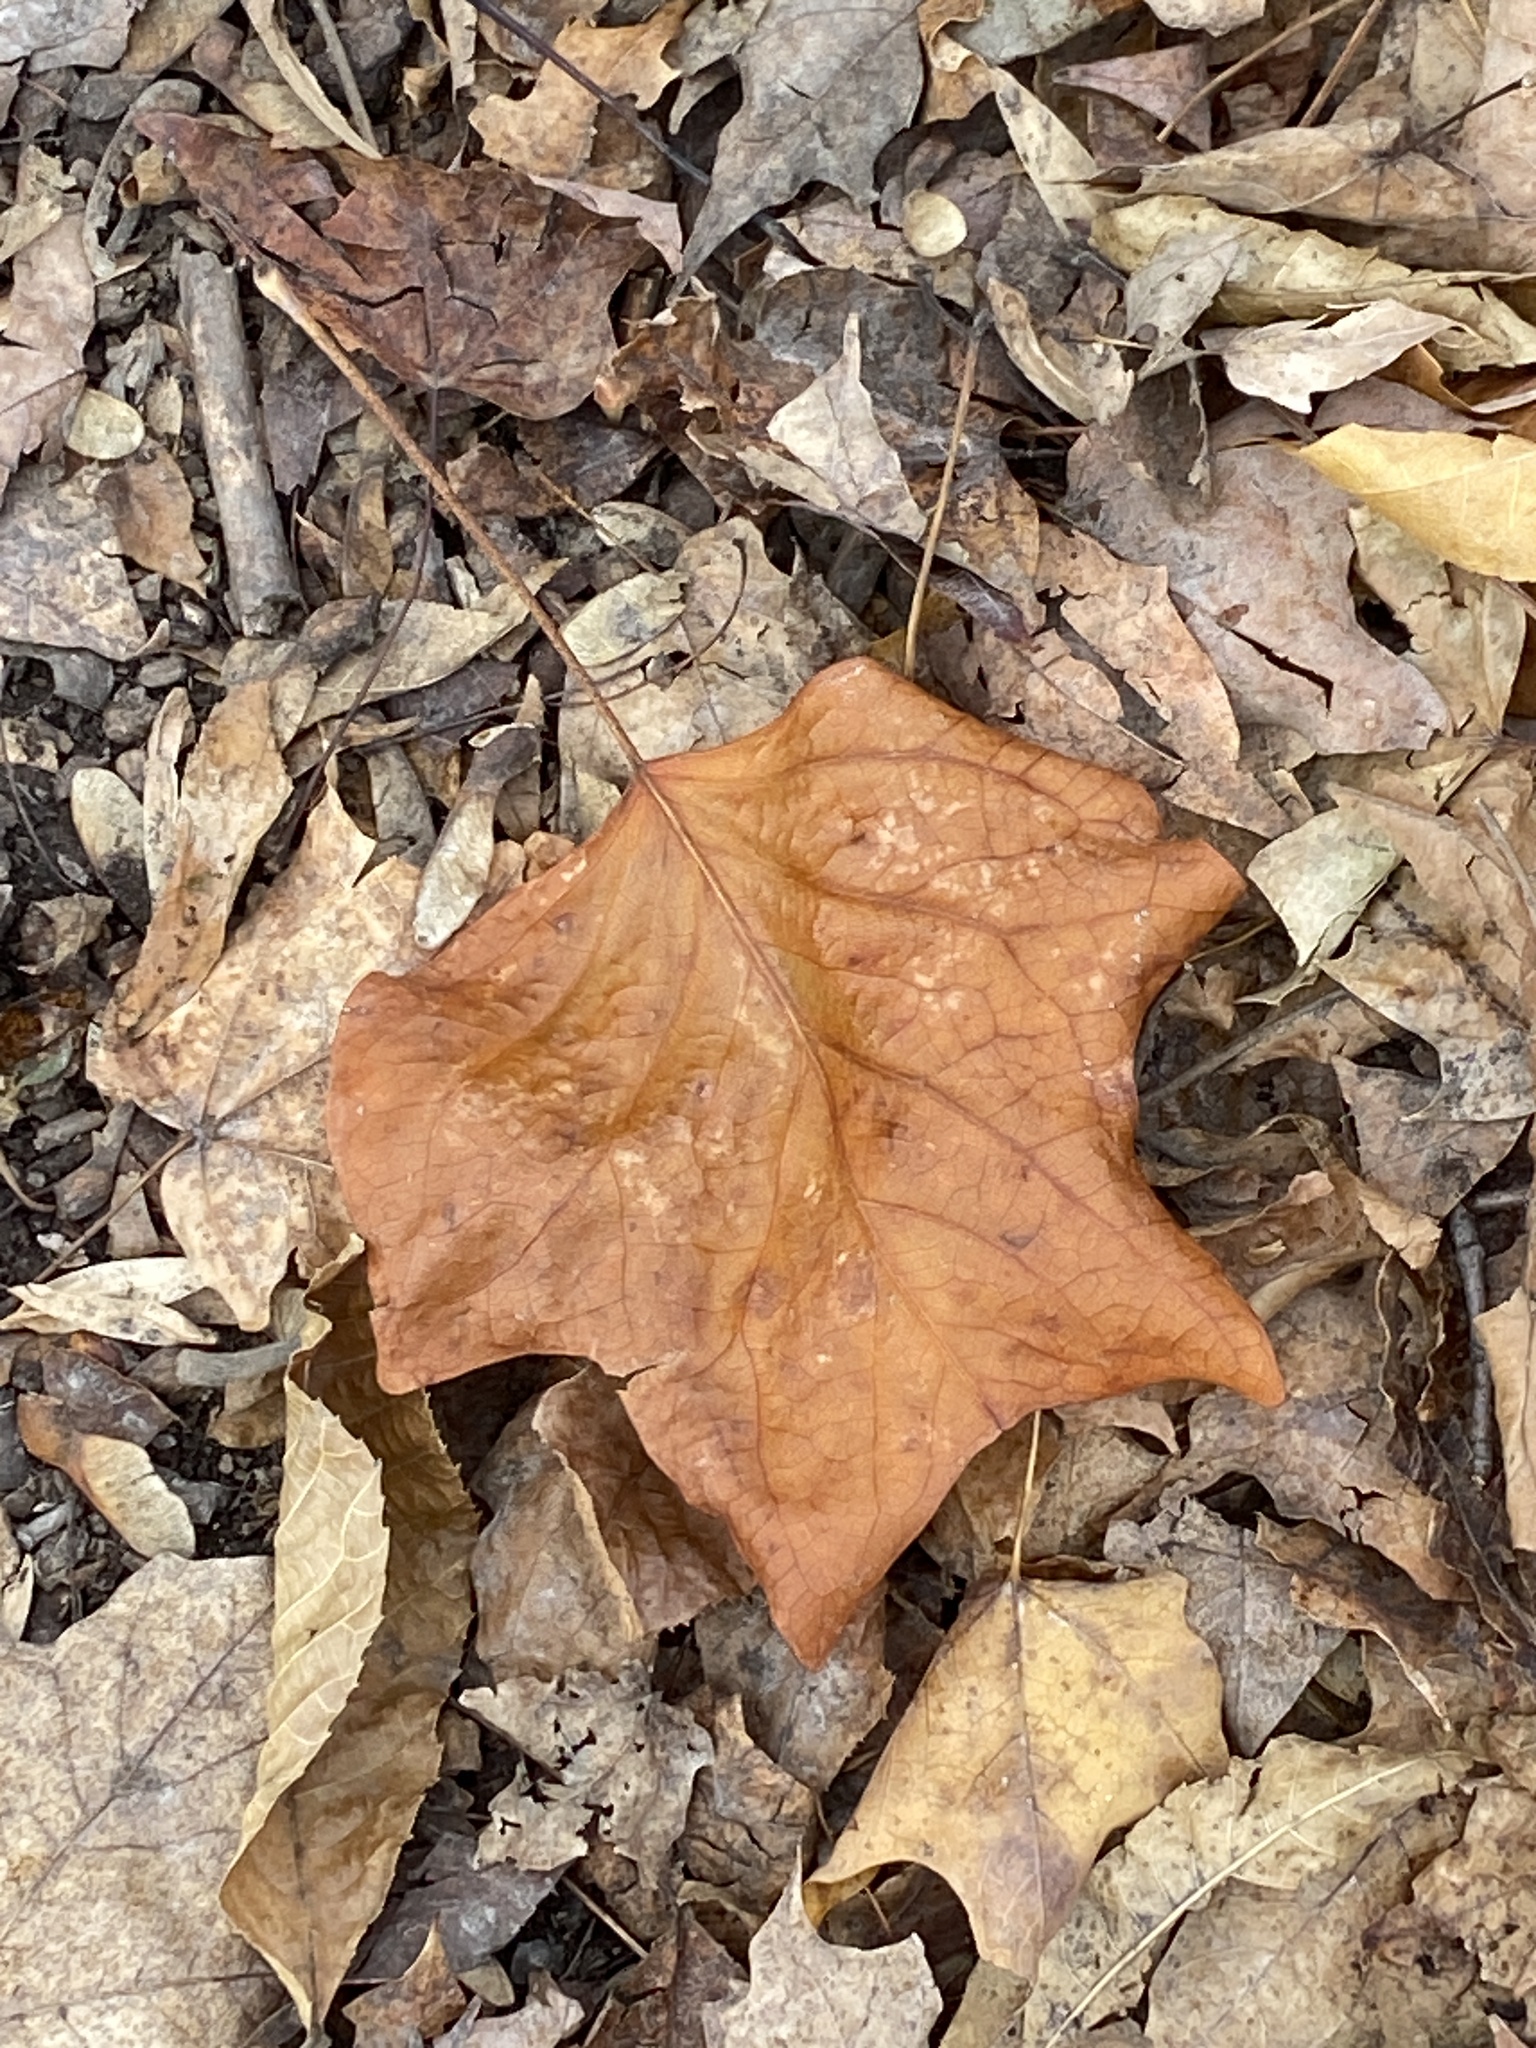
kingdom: Plantae
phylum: Tracheophyta
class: Magnoliopsida
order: Magnoliales
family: Magnoliaceae
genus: Liriodendron
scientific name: Liriodendron tulipifera
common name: Tulip tree
